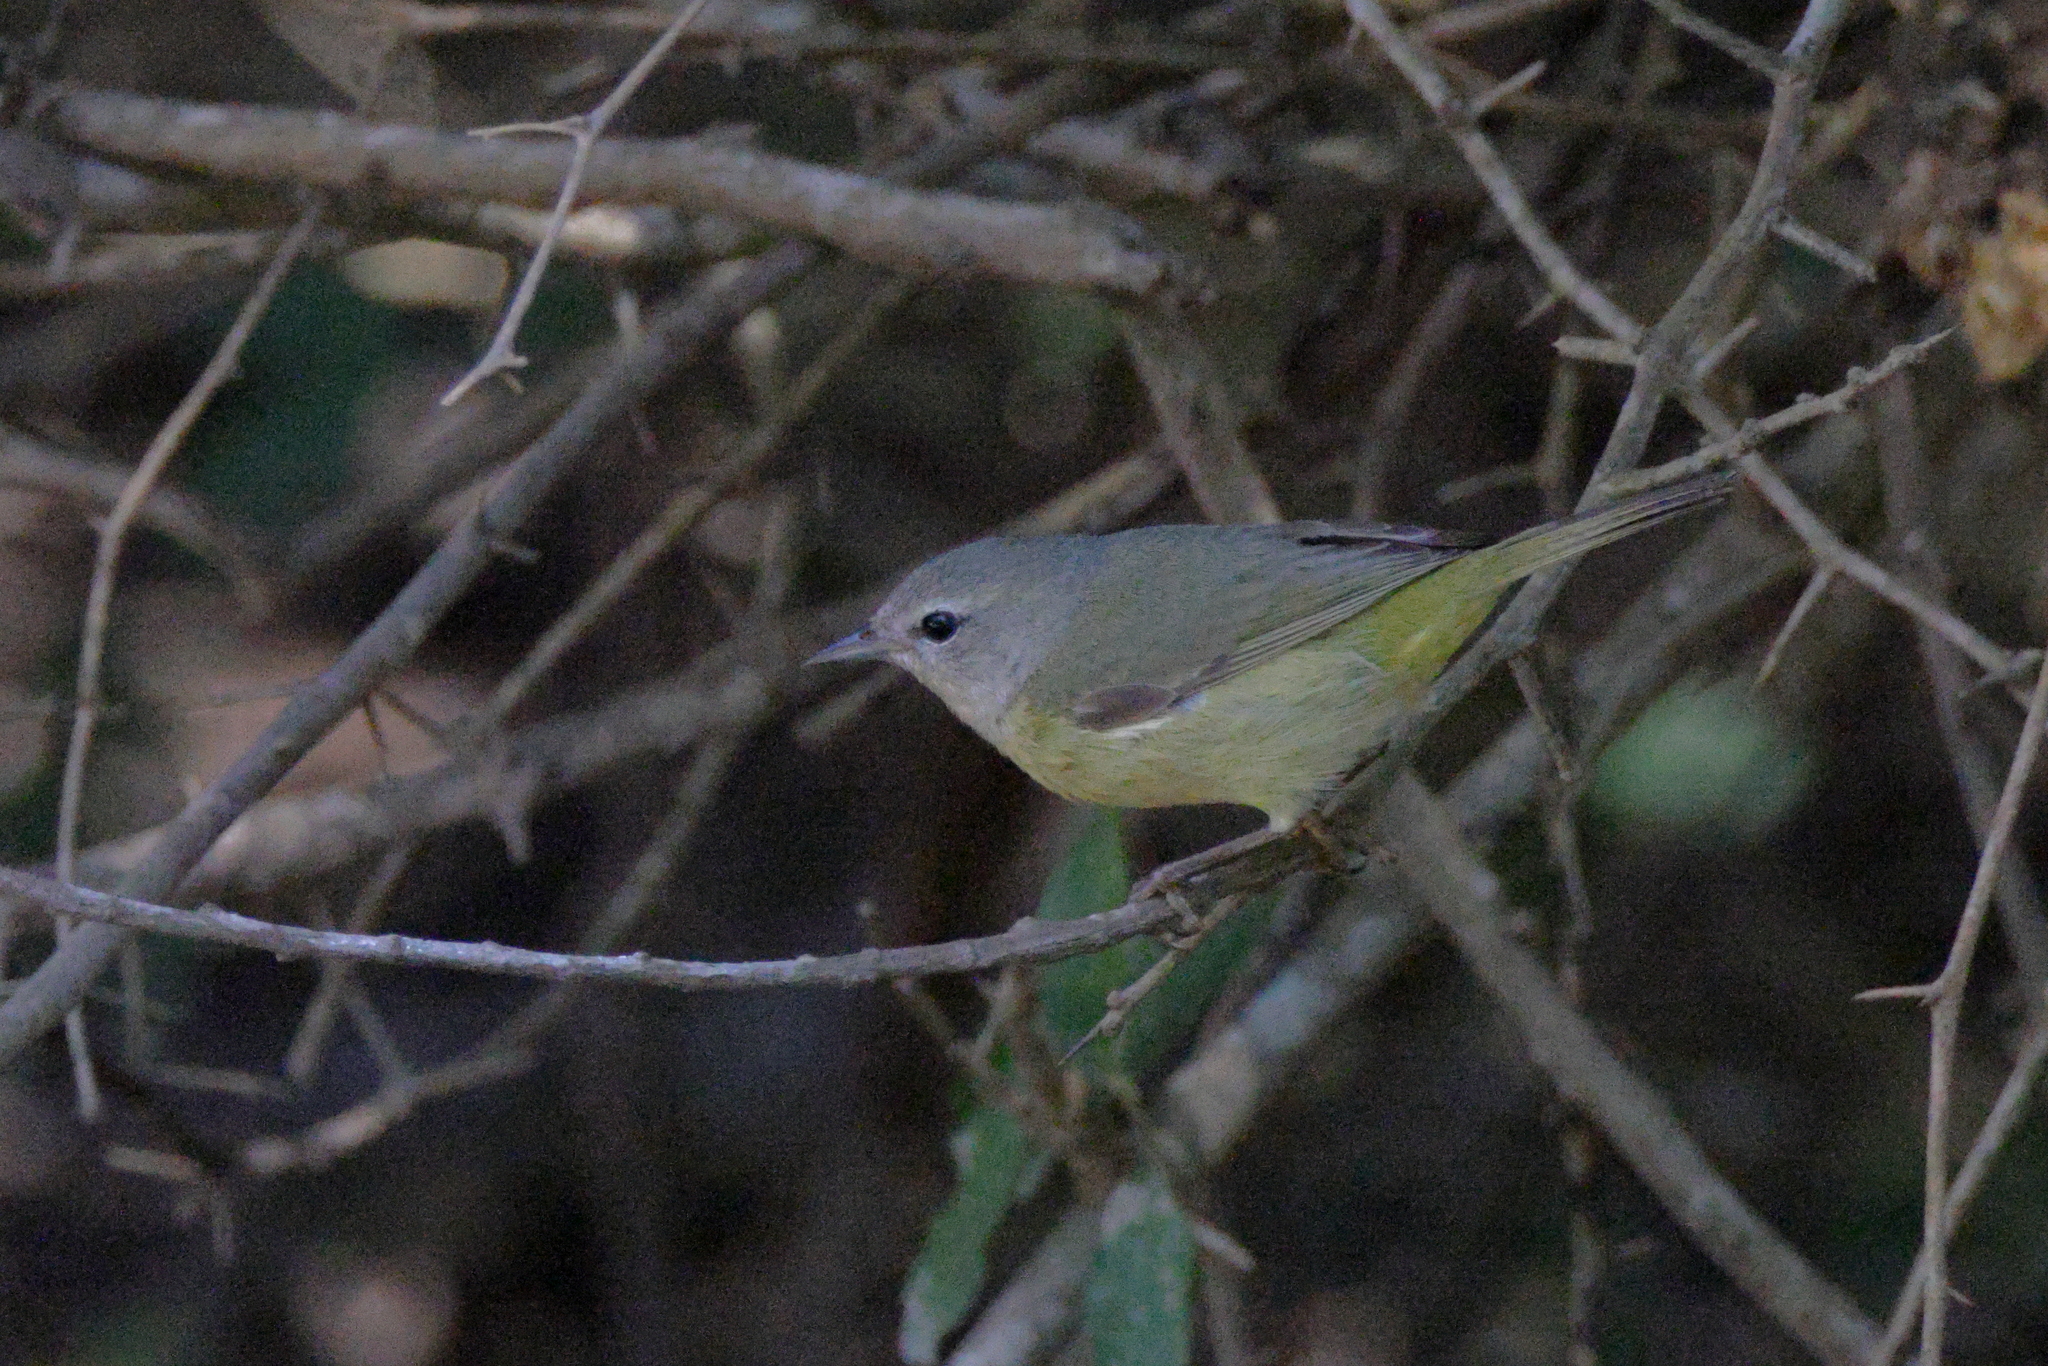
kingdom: Animalia
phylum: Chordata
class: Aves
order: Passeriformes
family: Parulidae
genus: Leiothlypis
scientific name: Leiothlypis celata
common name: Orange-crowned warbler
